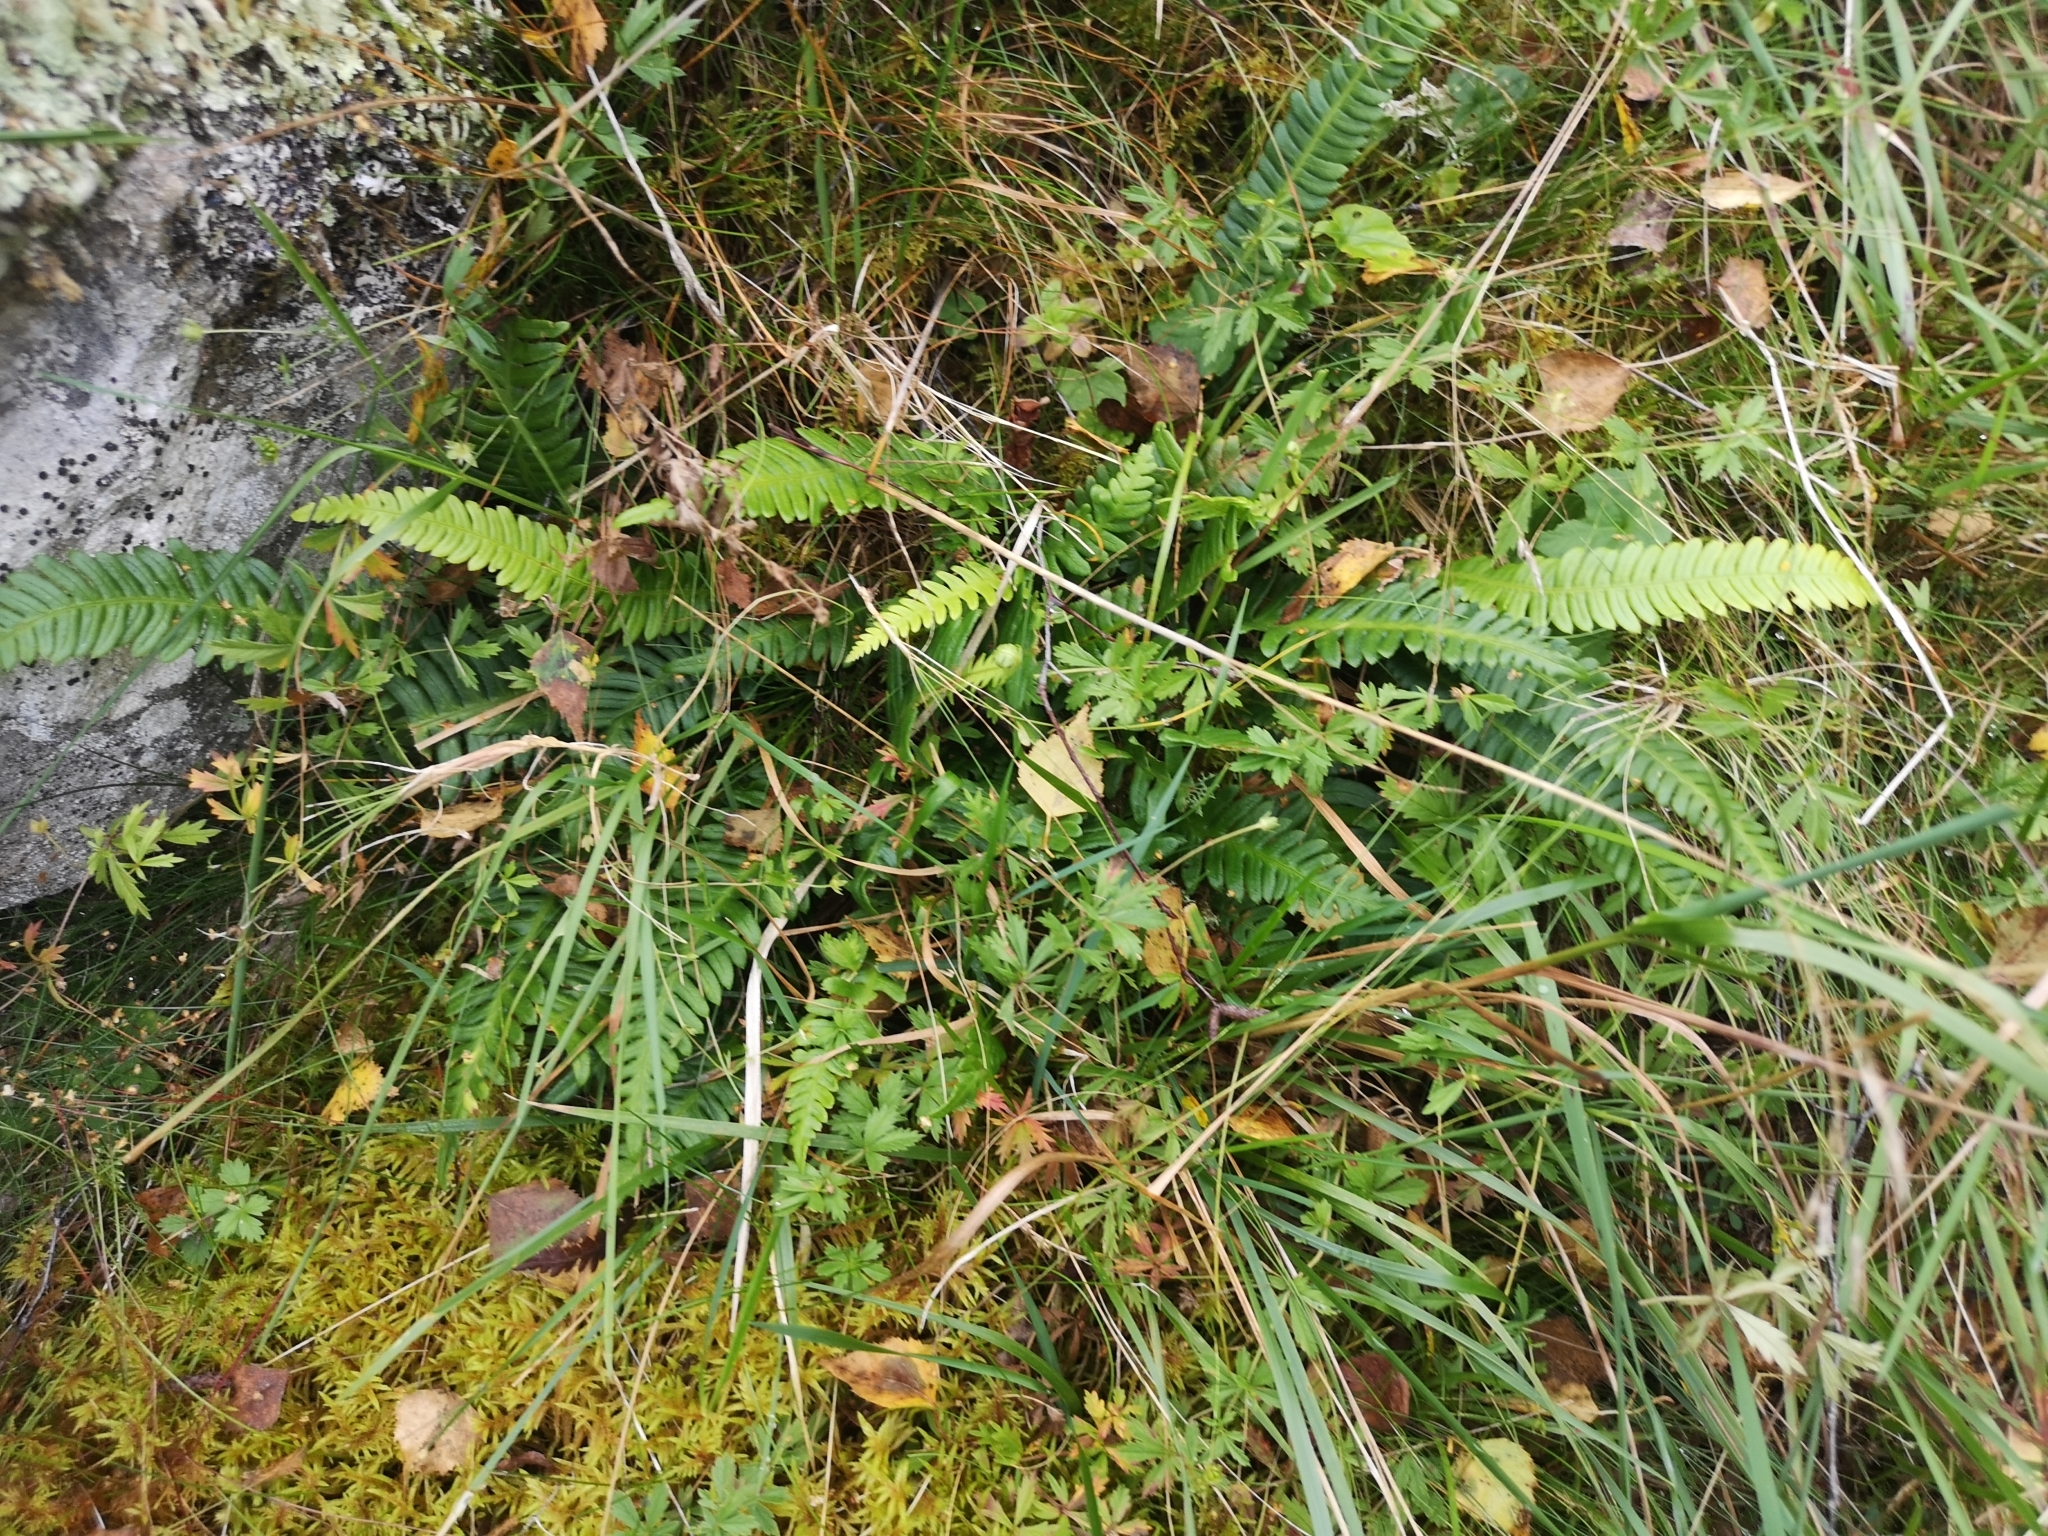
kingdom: Plantae
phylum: Tracheophyta
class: Polypodiopsida
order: Polypodiales
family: Blechnaceae
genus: Struthiopteris
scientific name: Struthiopteris spicant
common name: Deer fern
